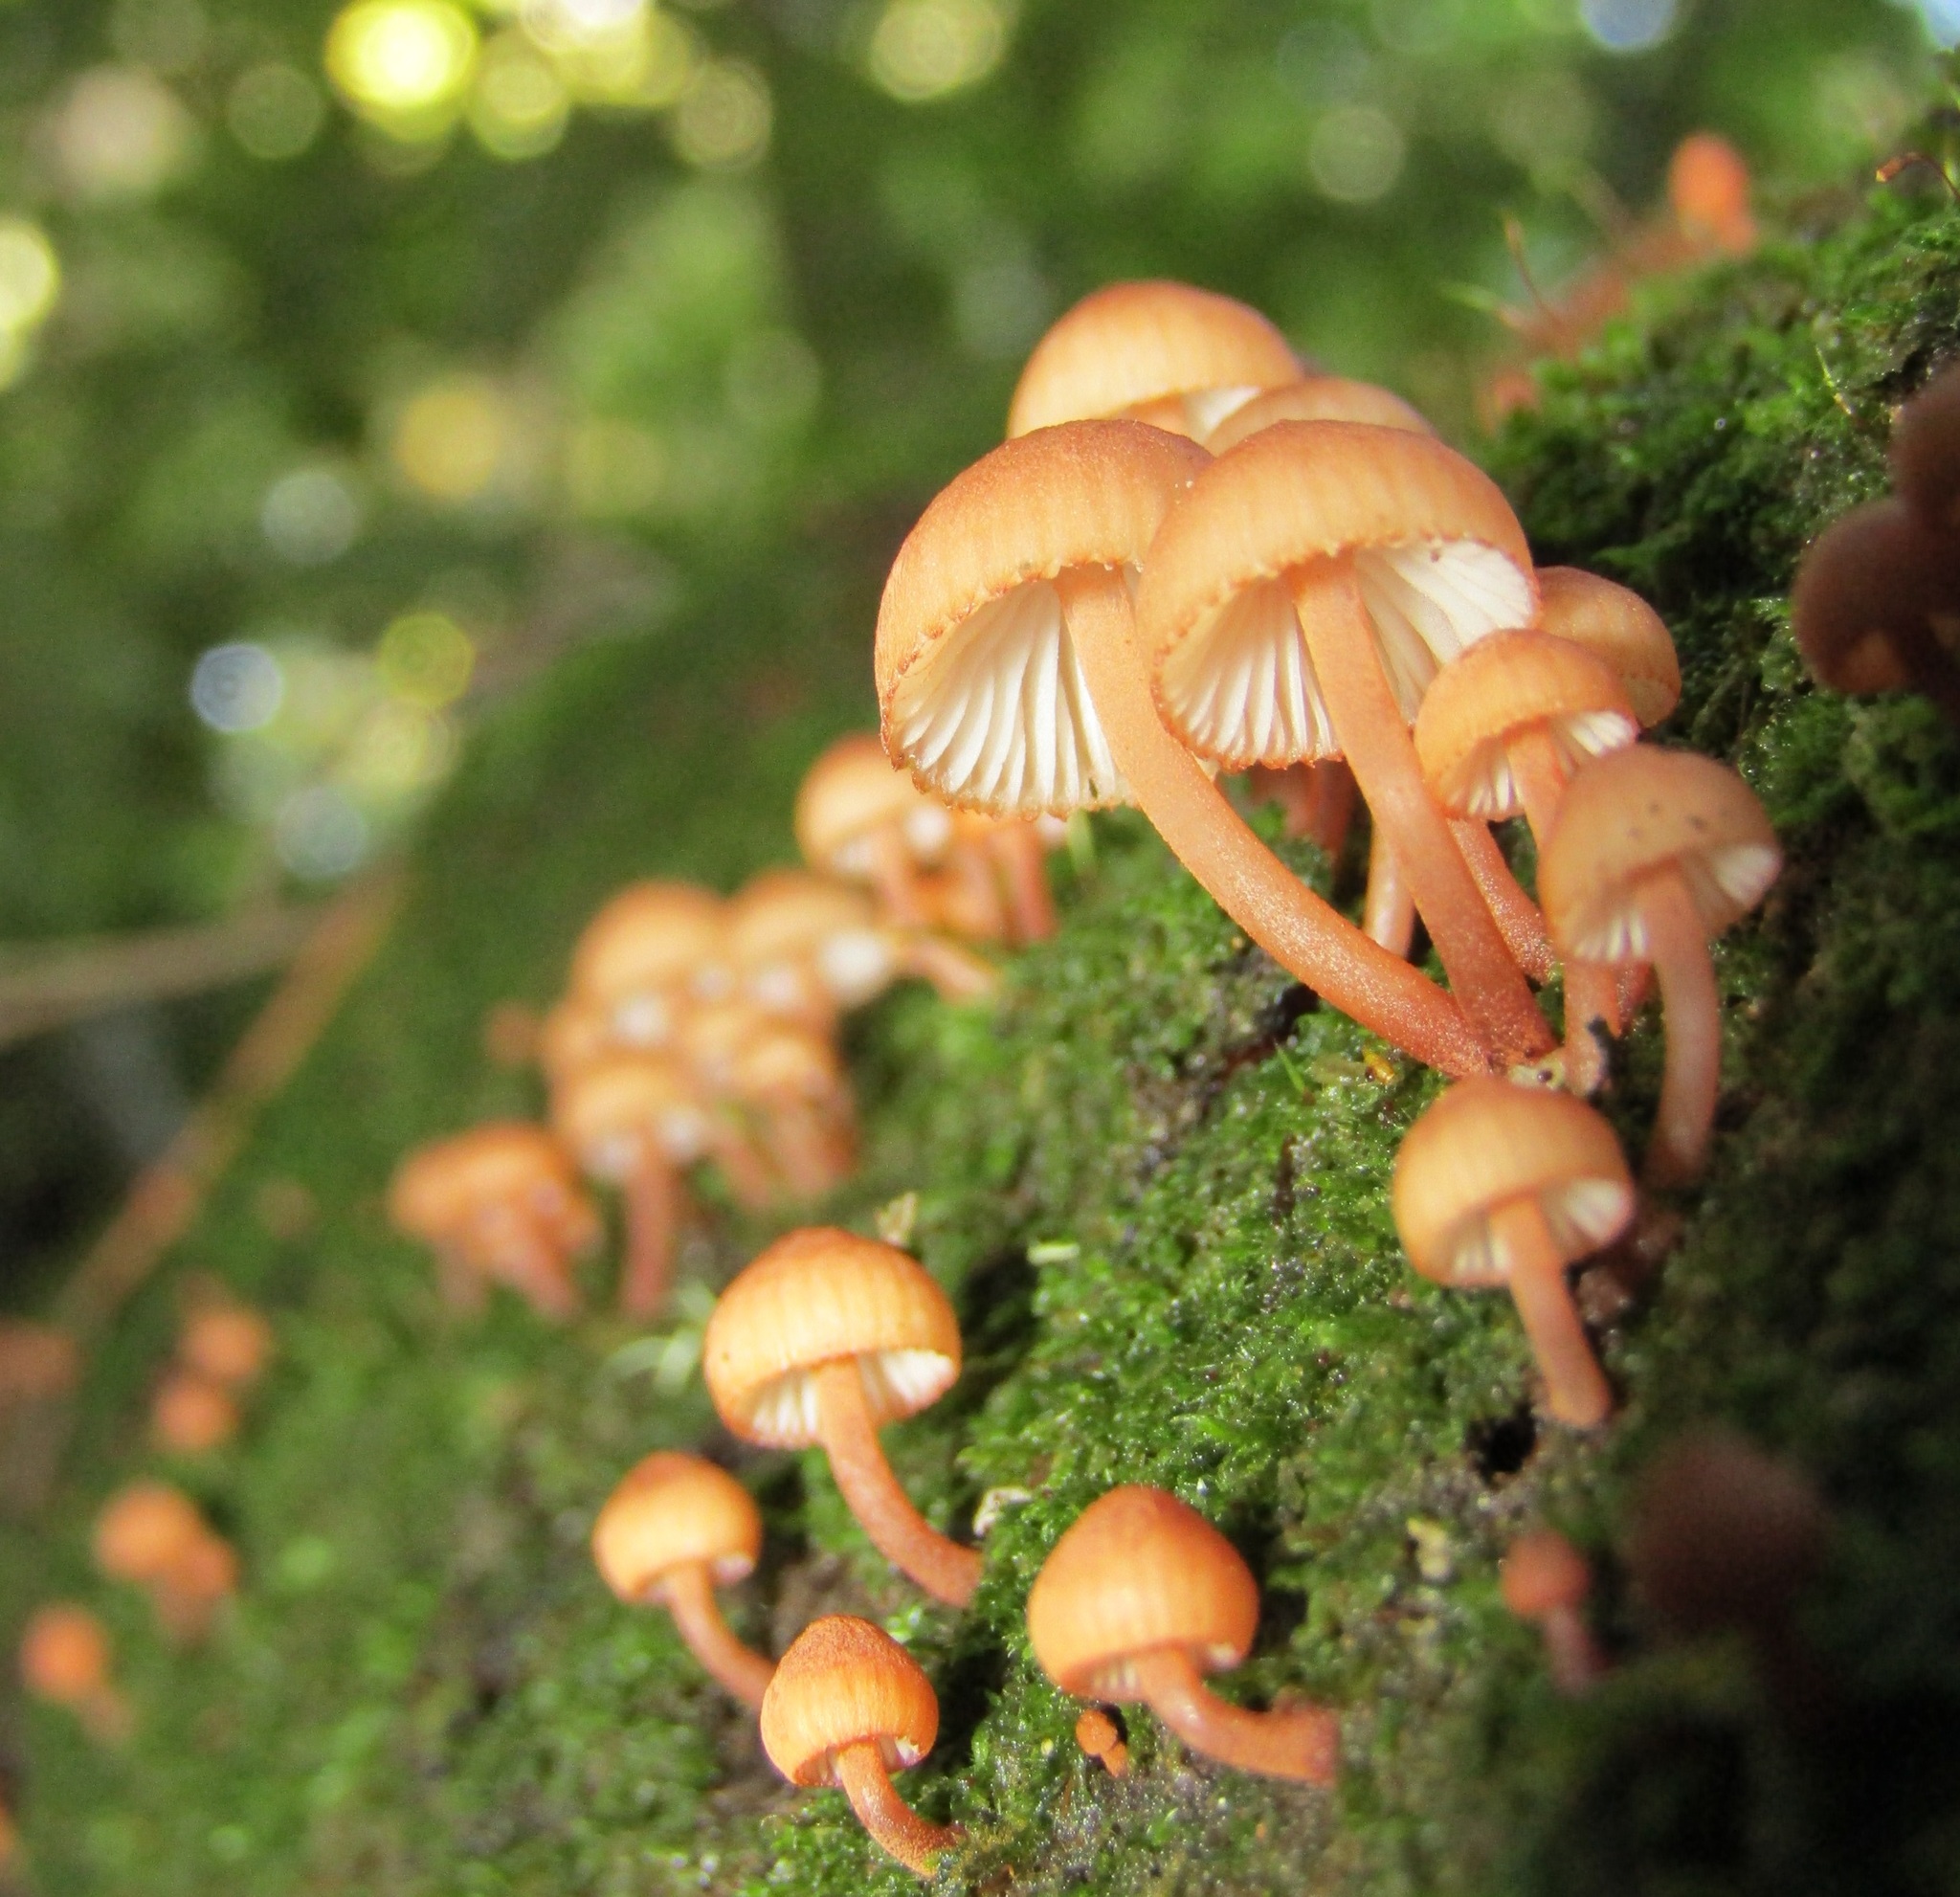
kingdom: Fungi
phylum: Basidiomycota
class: Agaricomycetes
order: Agaricales
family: Mycenaceae
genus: Mycena
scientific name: Mycena parsonsii
